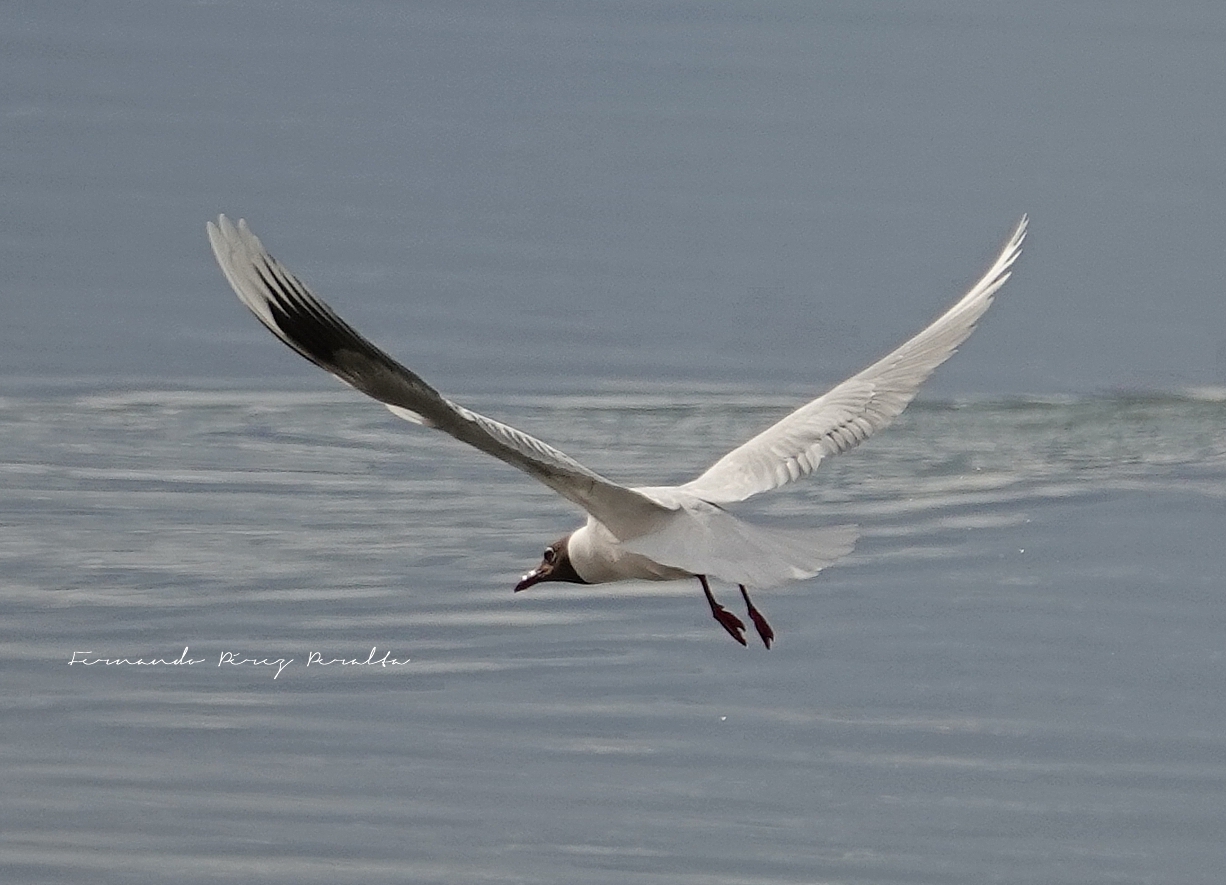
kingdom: Animalia
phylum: Chordata
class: Aves
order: Charadriiformes
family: Laridae
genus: Chroicocephalus
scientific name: Chroicocephalus maculipennis
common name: Brown-hooded gull
